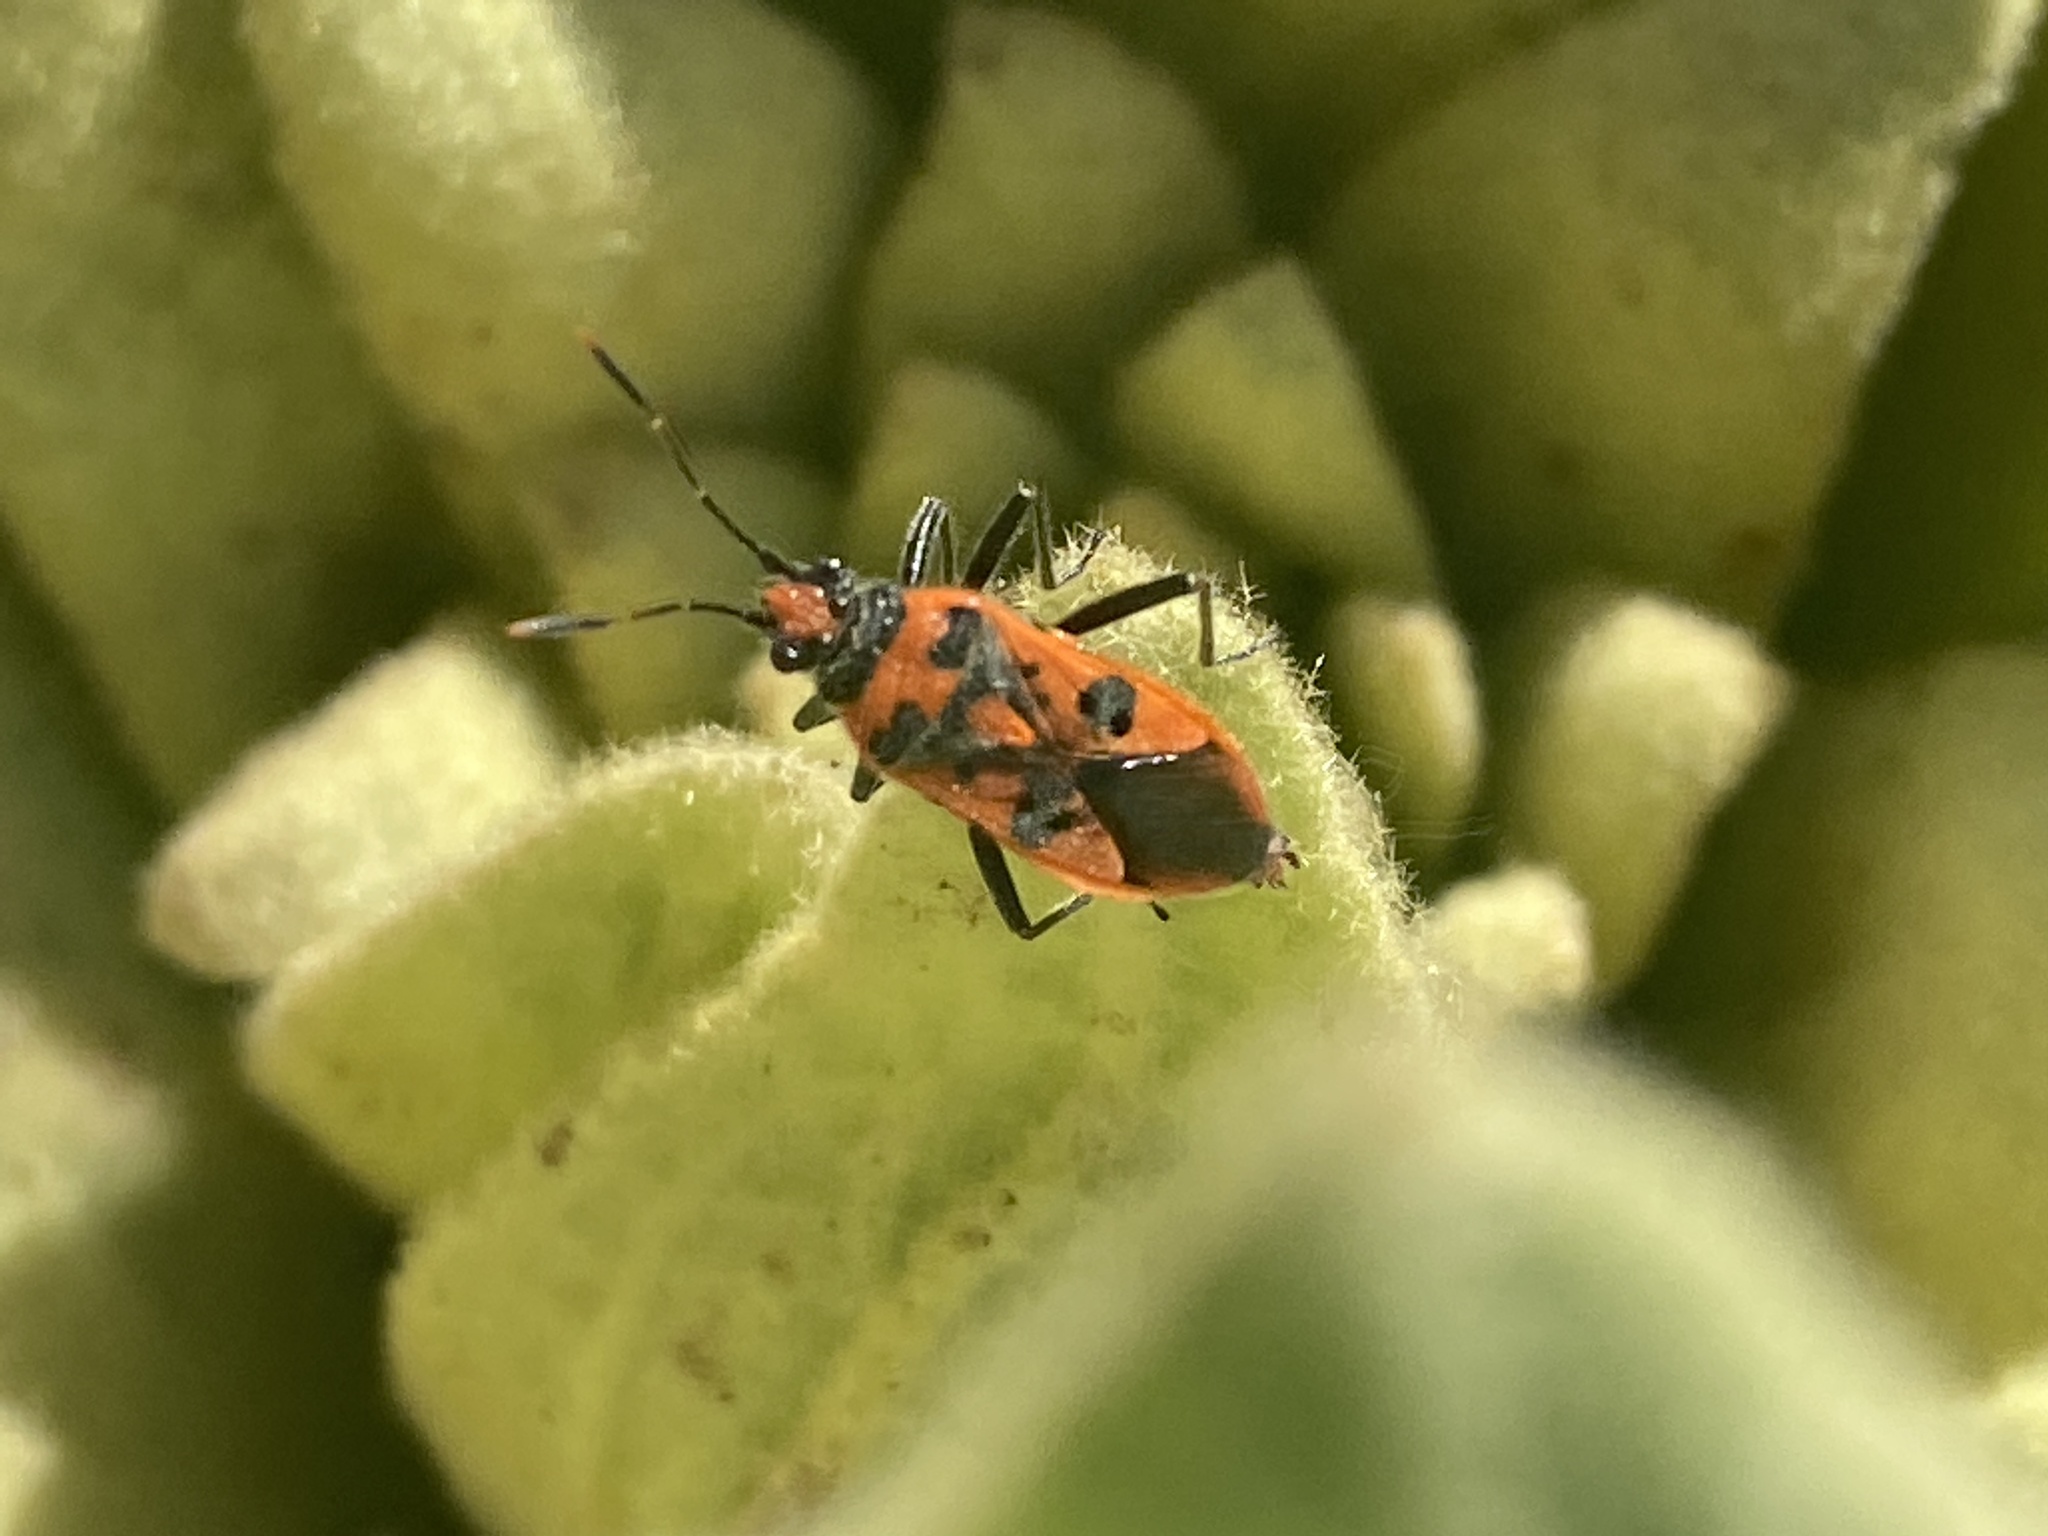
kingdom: Animalia
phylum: Arthropoda
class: Insecta
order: Hemiptera
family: Rhopalidae
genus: Corizus
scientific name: Corizus hyoscyami
